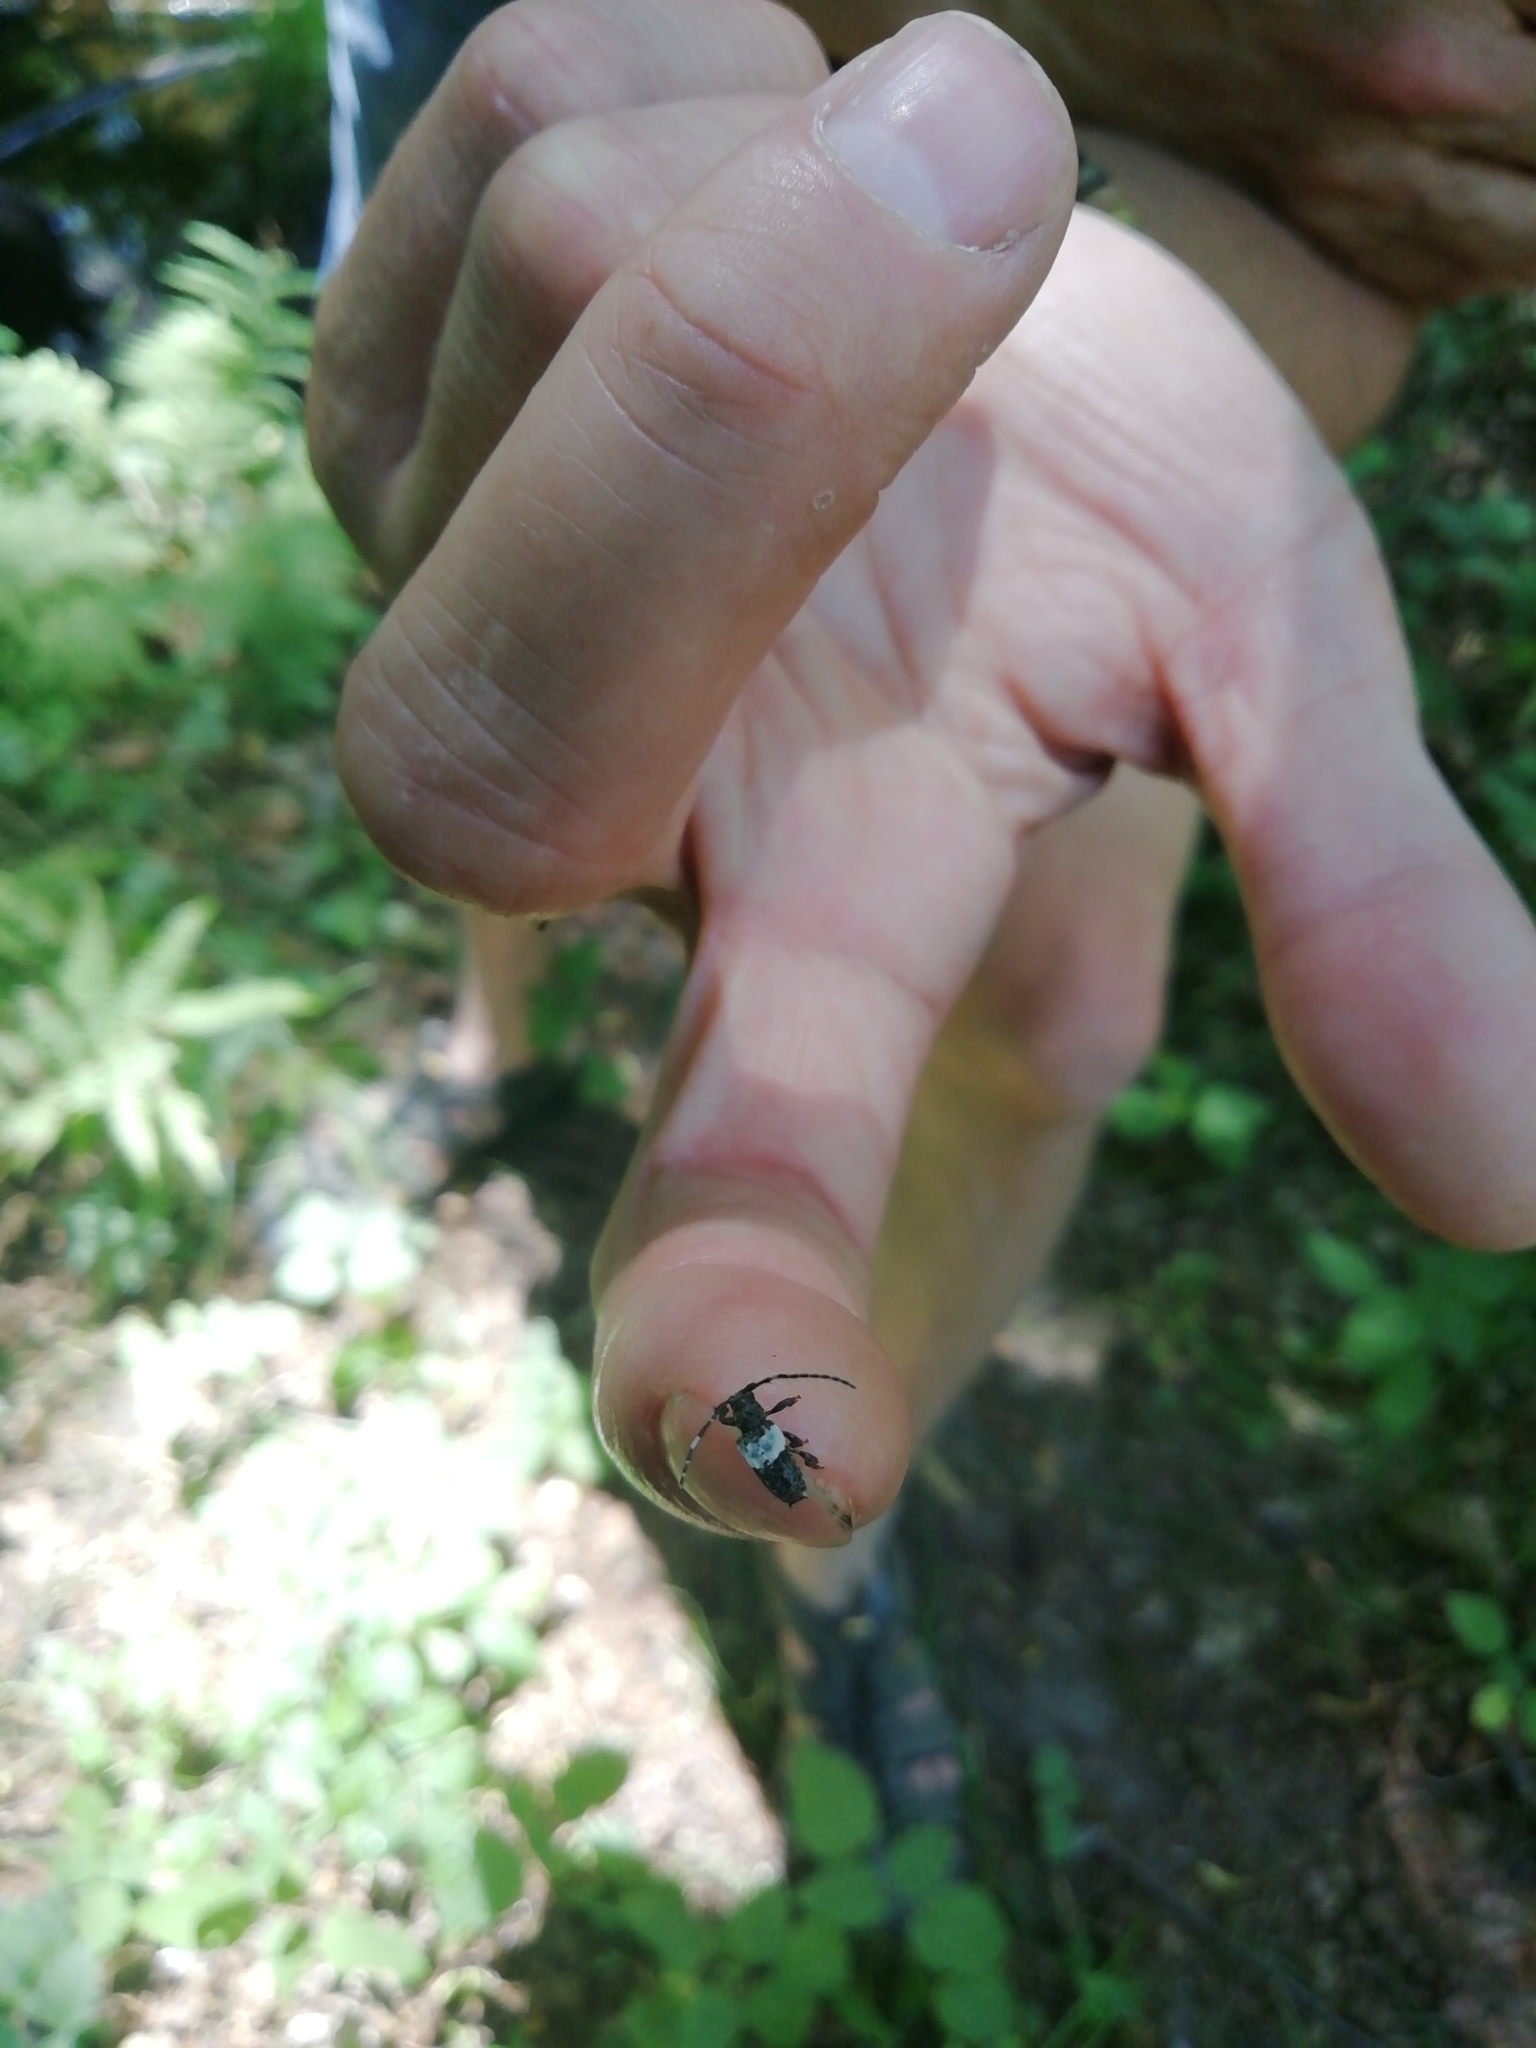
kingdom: Animalia
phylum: Arthropoda
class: Insecta
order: Coleoptera
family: Cerambycidae
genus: Pogonocherus
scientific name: Pogonocherus hispidulus
